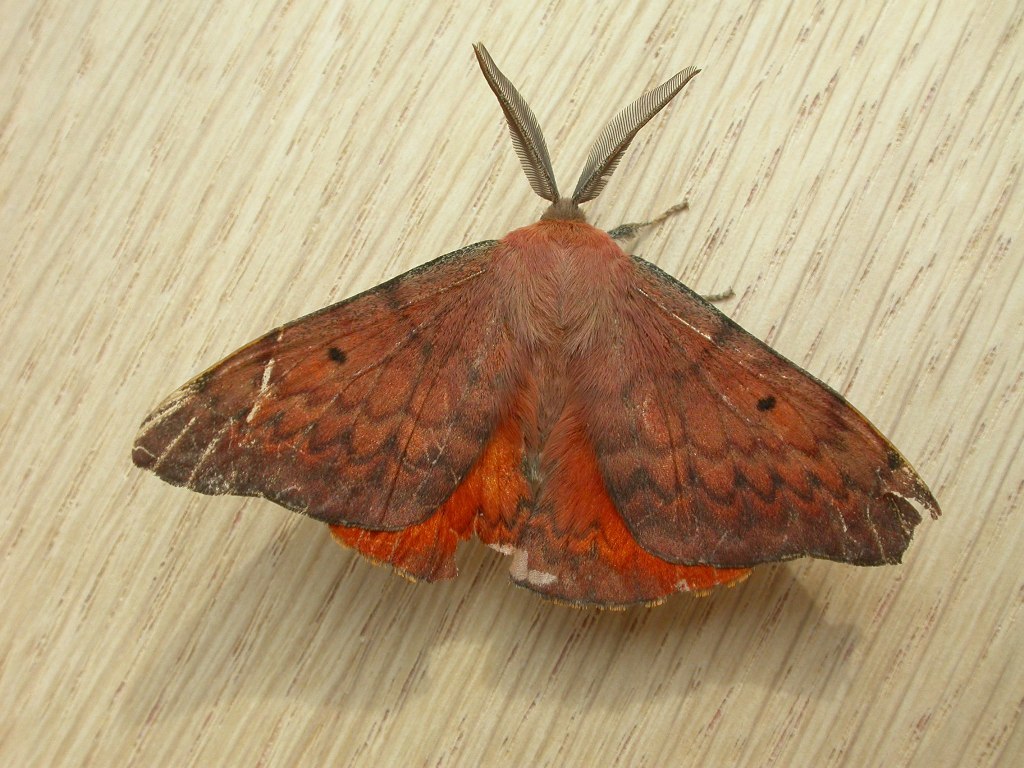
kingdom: Animalia
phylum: Arthropoda
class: Insecta
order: Lepidoptera
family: Anthelidae
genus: Chenuala
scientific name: Chenuala heliaspis
